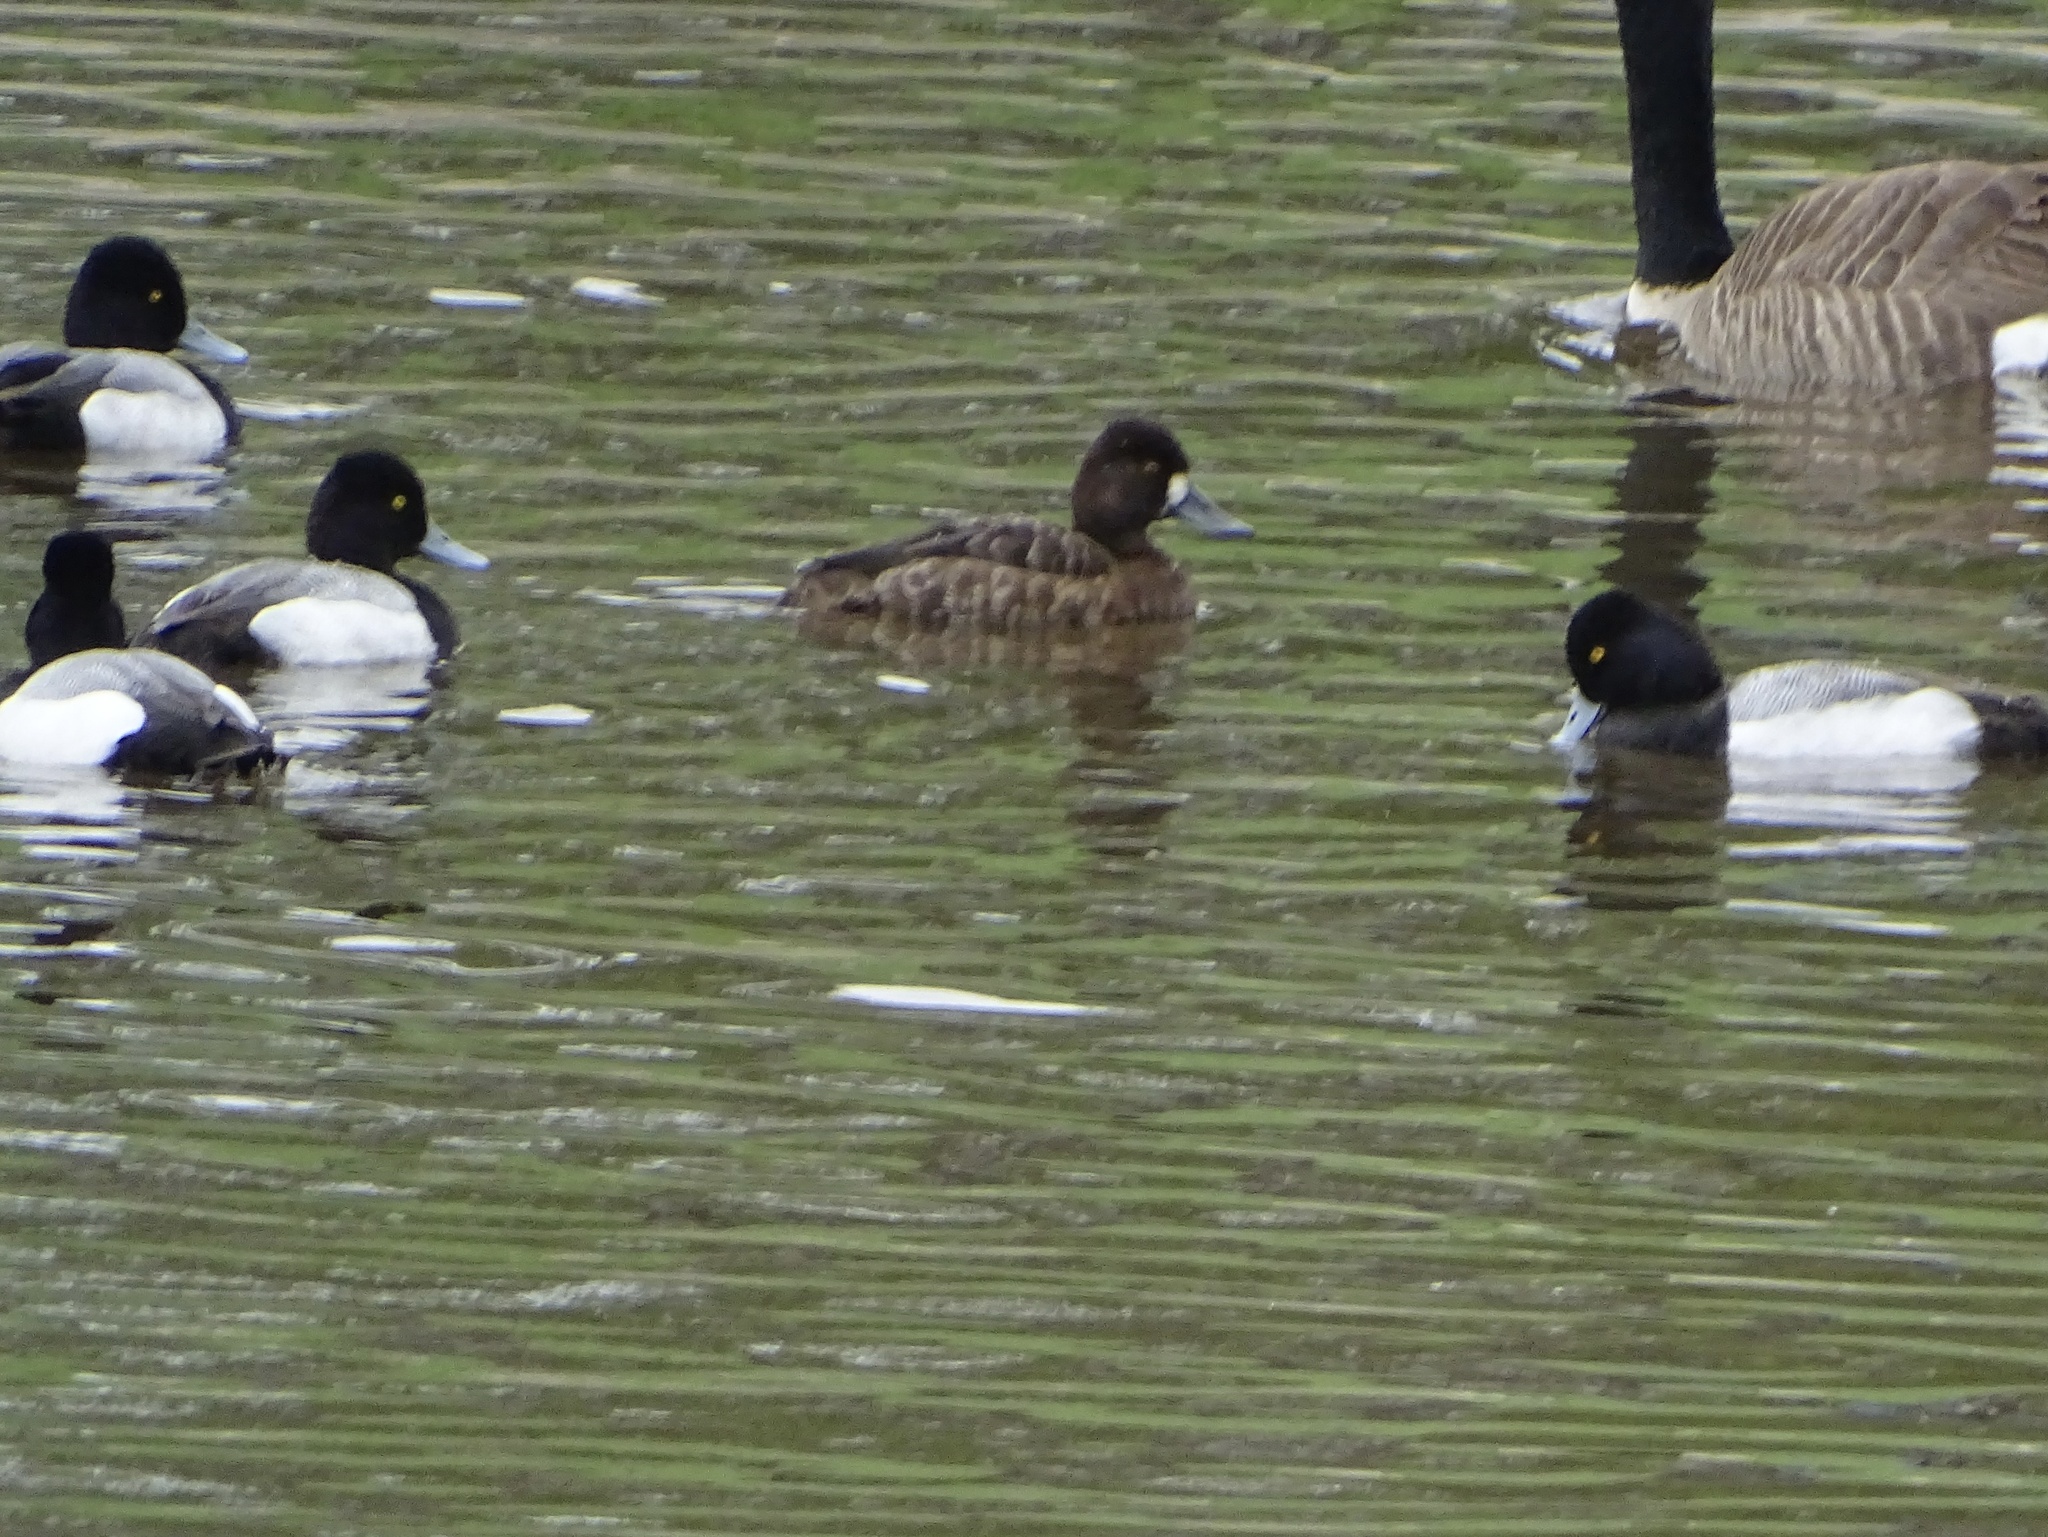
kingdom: Animalia
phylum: Chordata
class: Aves
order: Anseriformes
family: Anatidae
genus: Aythya
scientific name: Aythya affinis
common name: Lesser scaup
